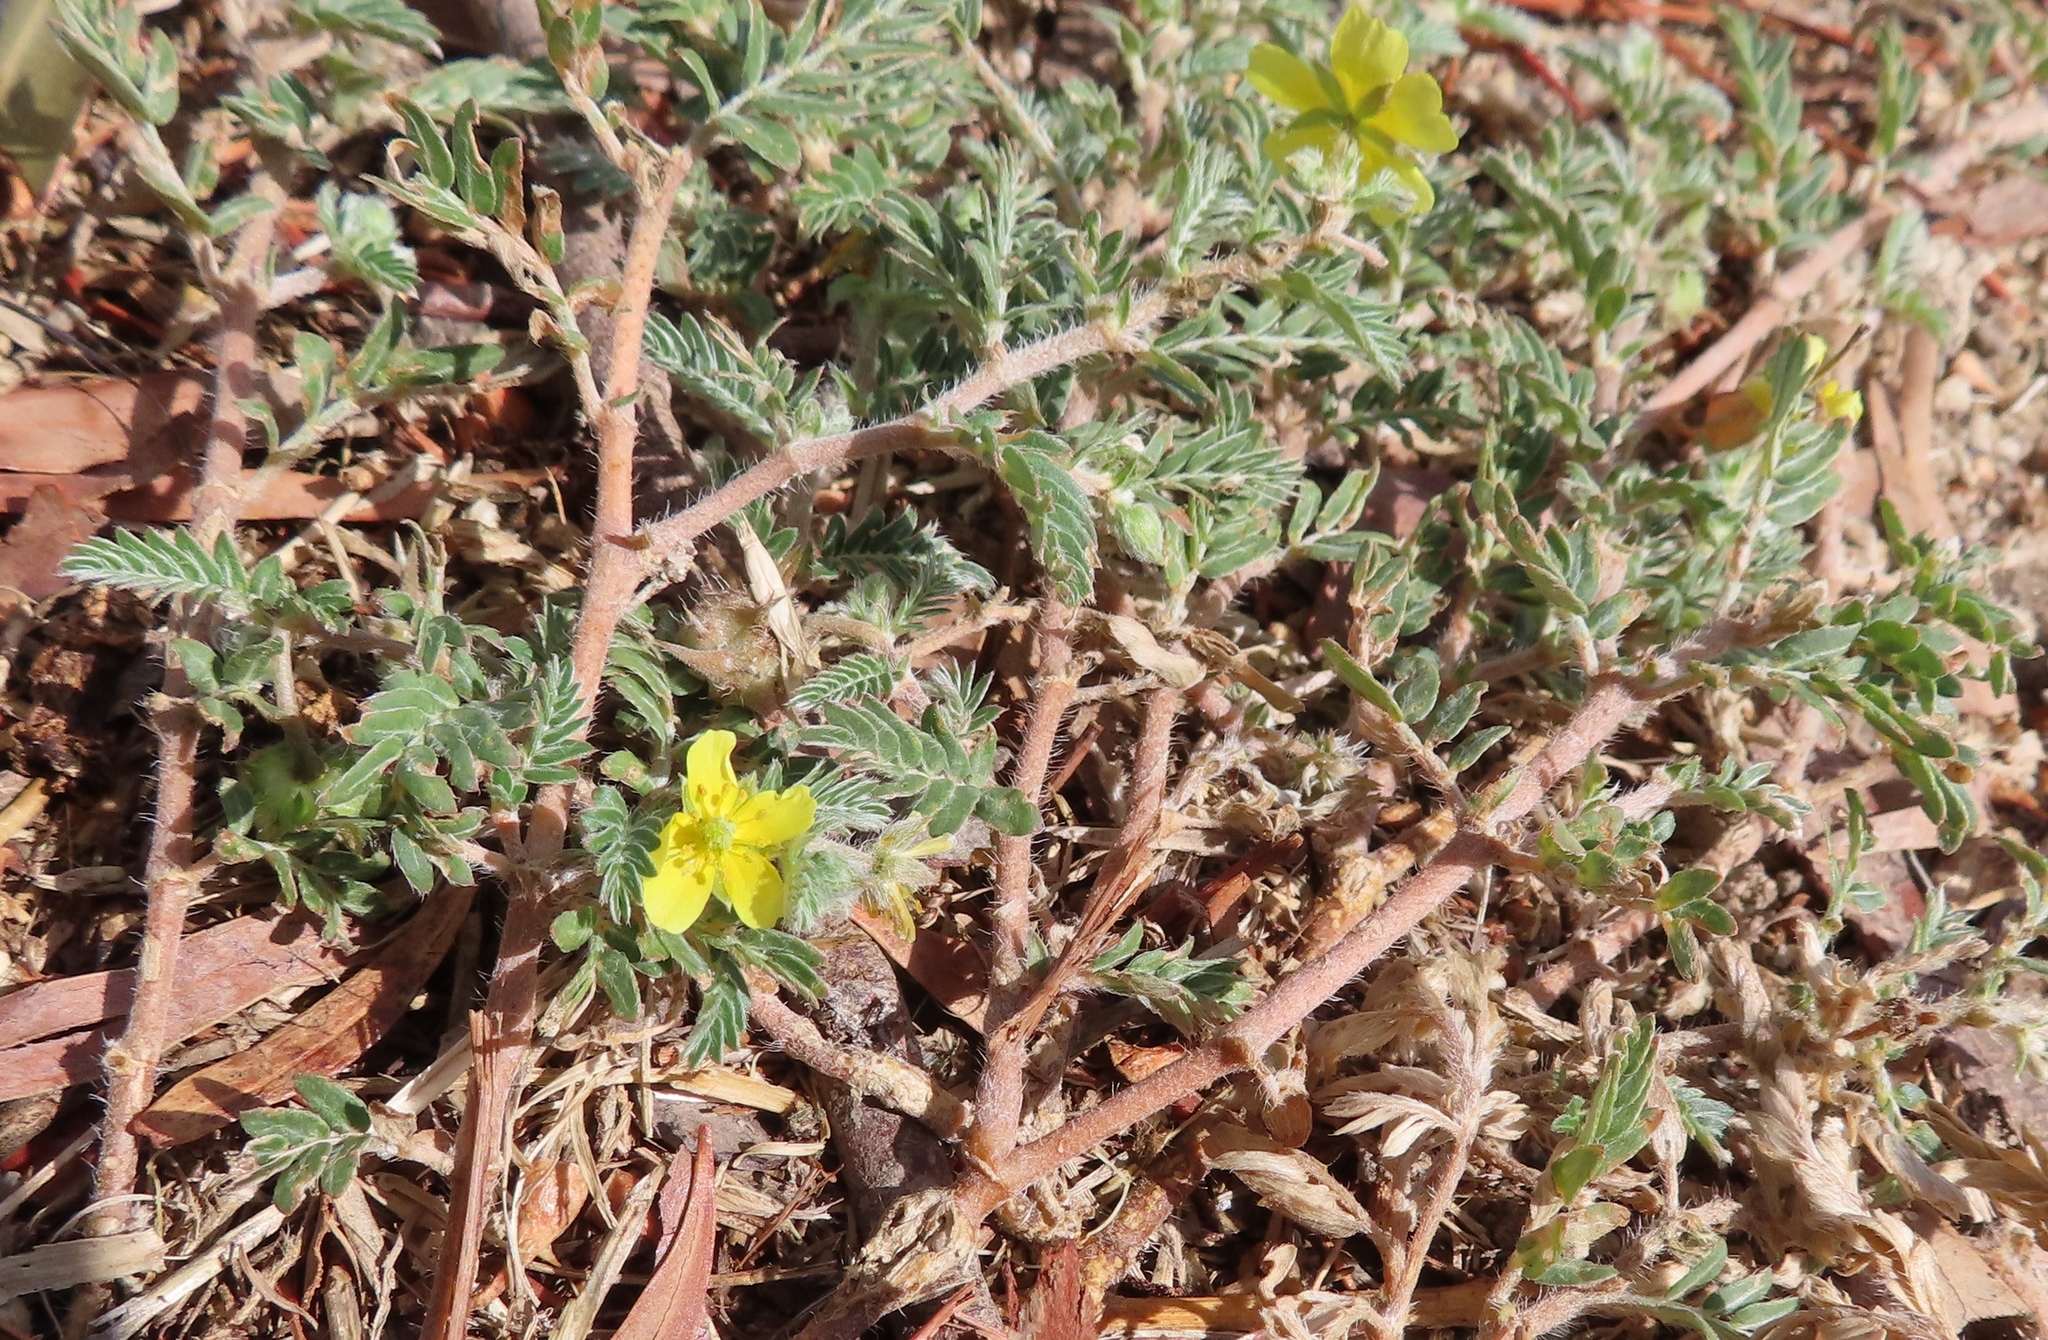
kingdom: Plantae
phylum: Tracheophyta
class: Magnoliopsida
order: Zygophyllales
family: Zygophyllaceae
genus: Tribulus
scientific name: Tribulus terrestris
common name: Puncturevine
